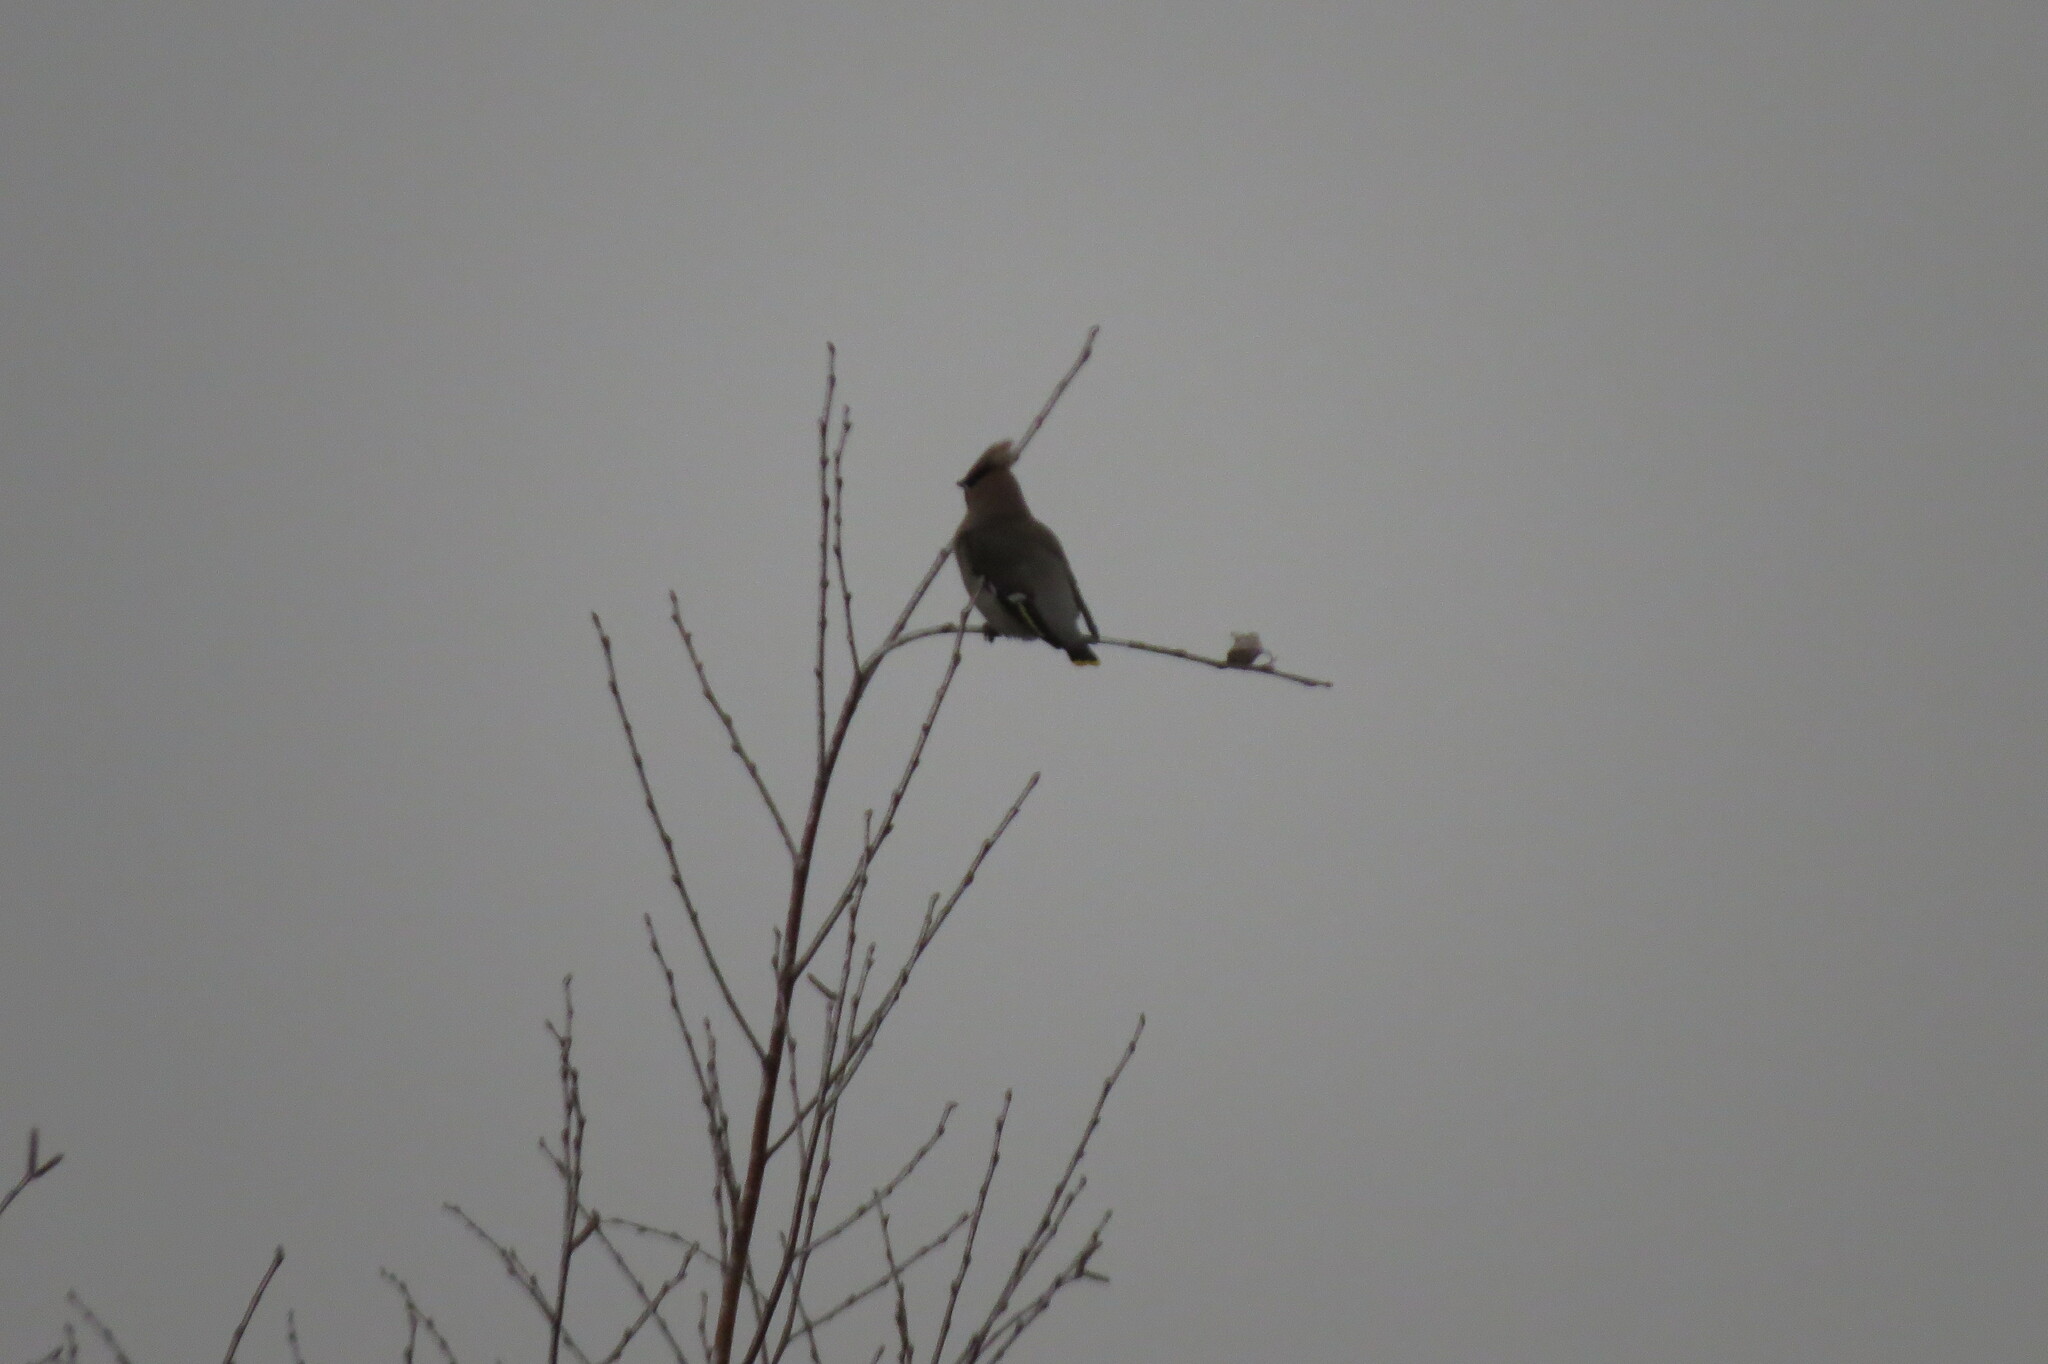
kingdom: Animalia
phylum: Chordata
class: Aves
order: Passeriformes
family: Bombycillidae
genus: Bombycilla
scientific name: Bombycilla garrulus
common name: Bohemian waxwing
